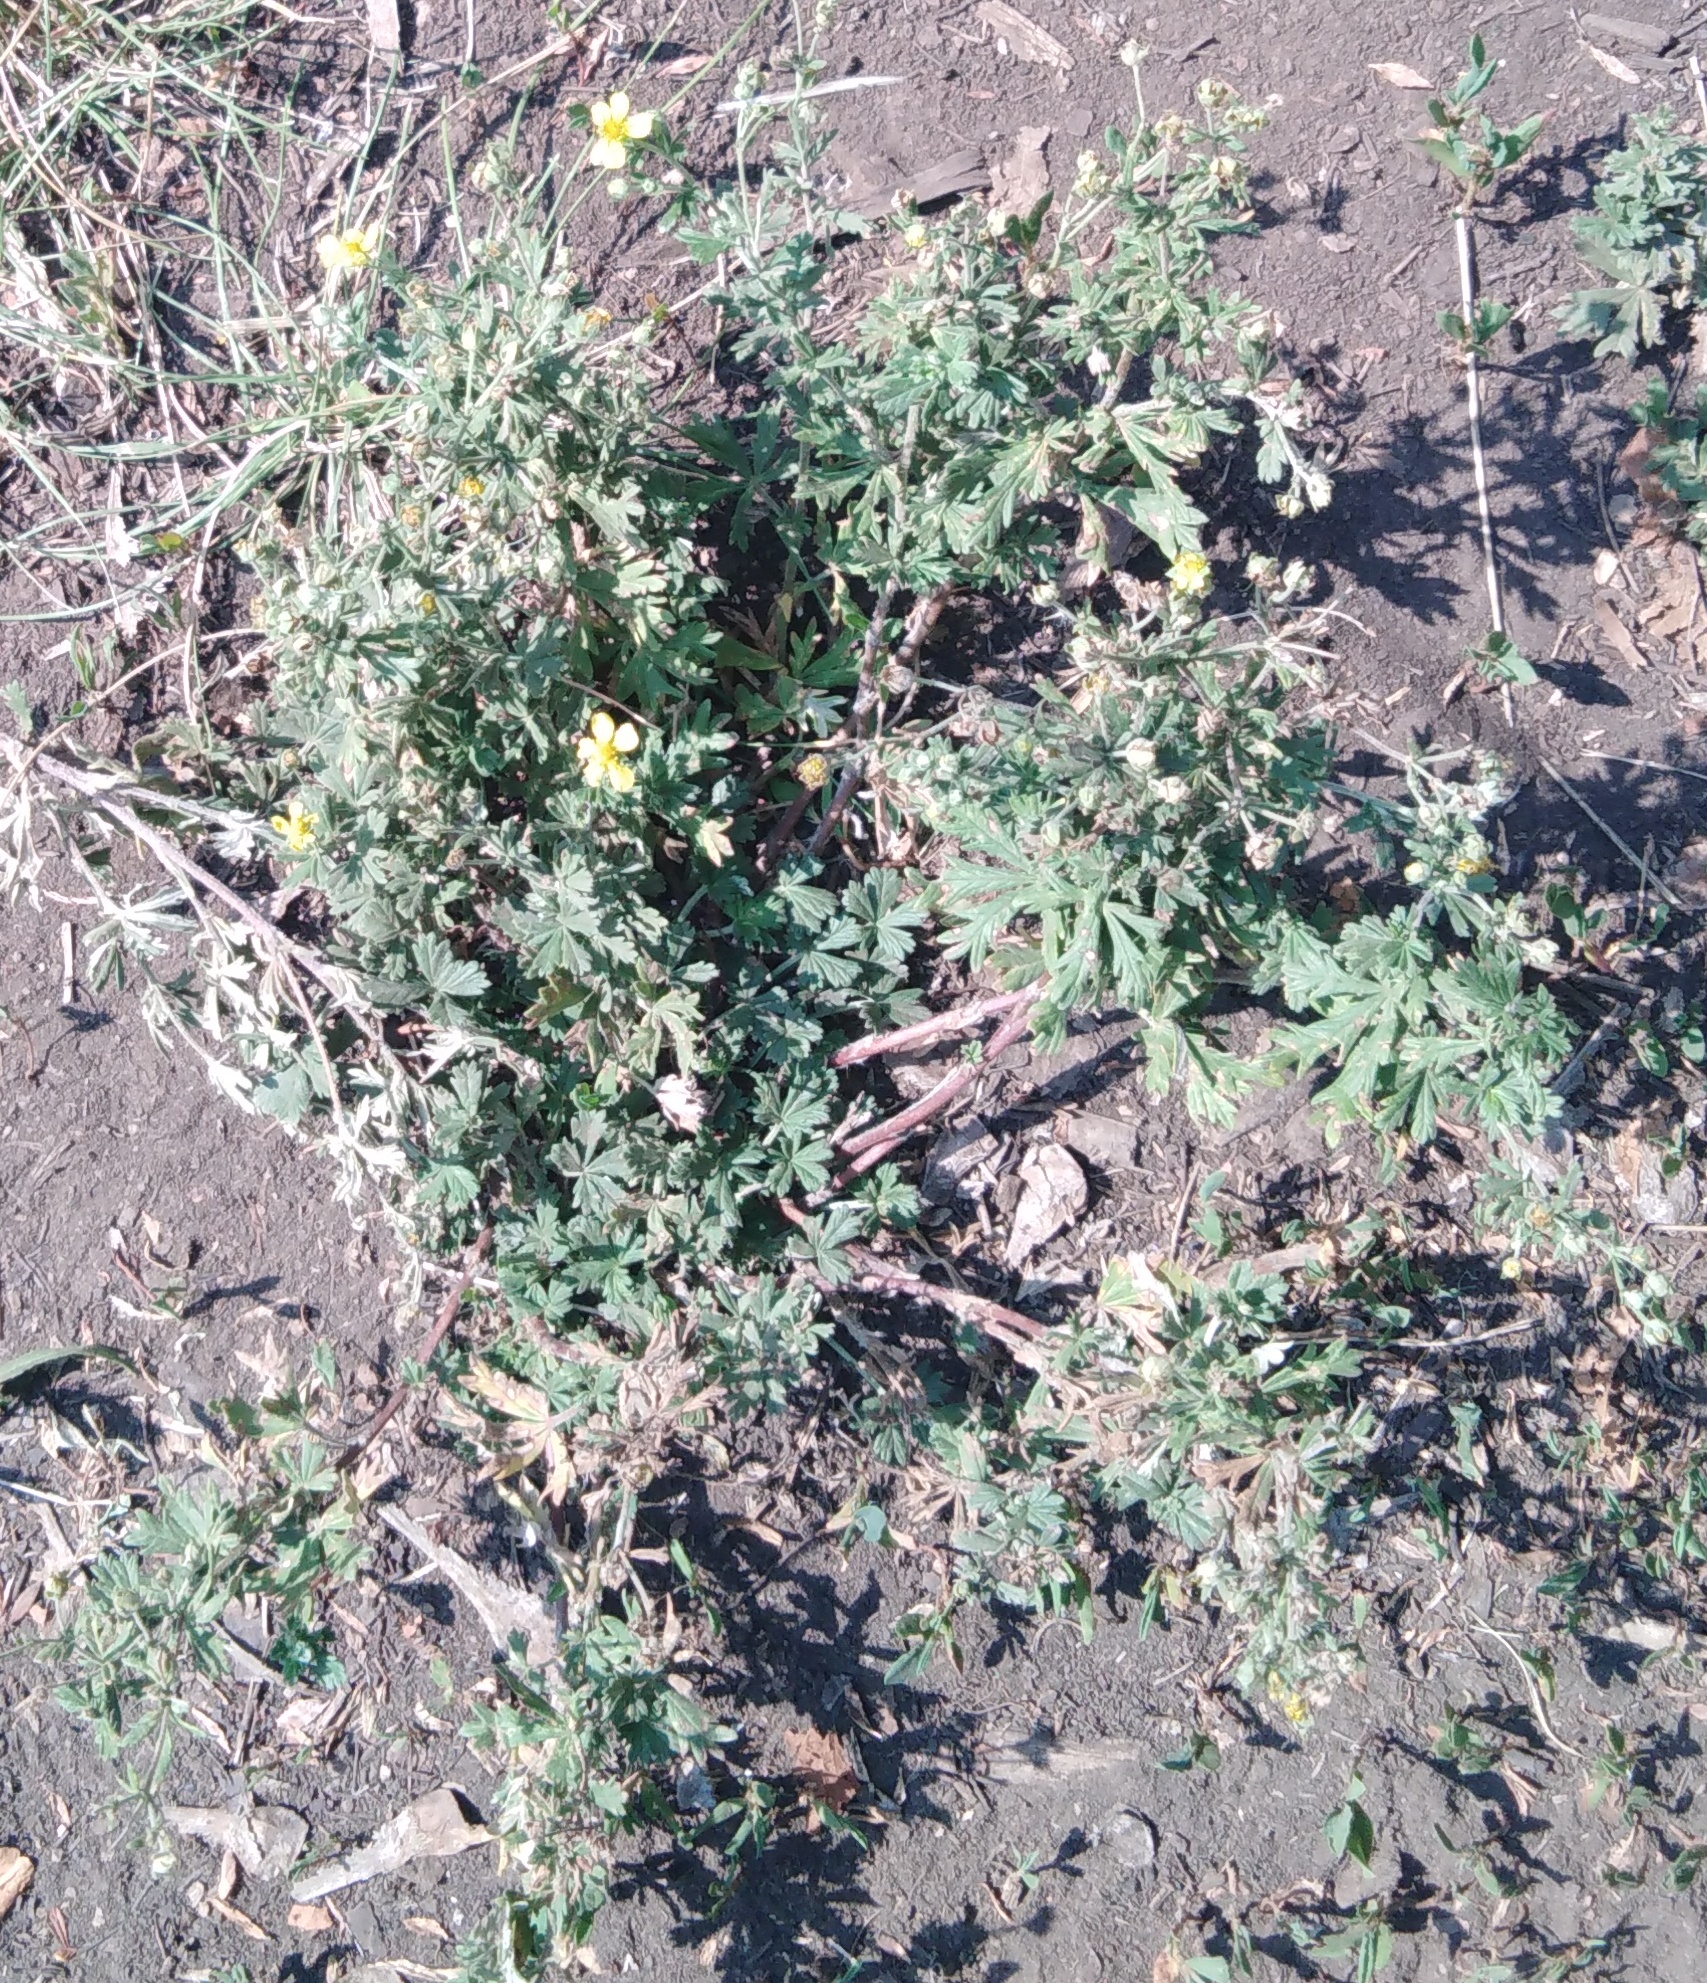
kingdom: Plantae
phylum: Tracheophyta
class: Magnoliopsida
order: Rosales
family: Rosaceae
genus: Potentilla
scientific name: Potentilla argentea
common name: Hoary cinquefoil
